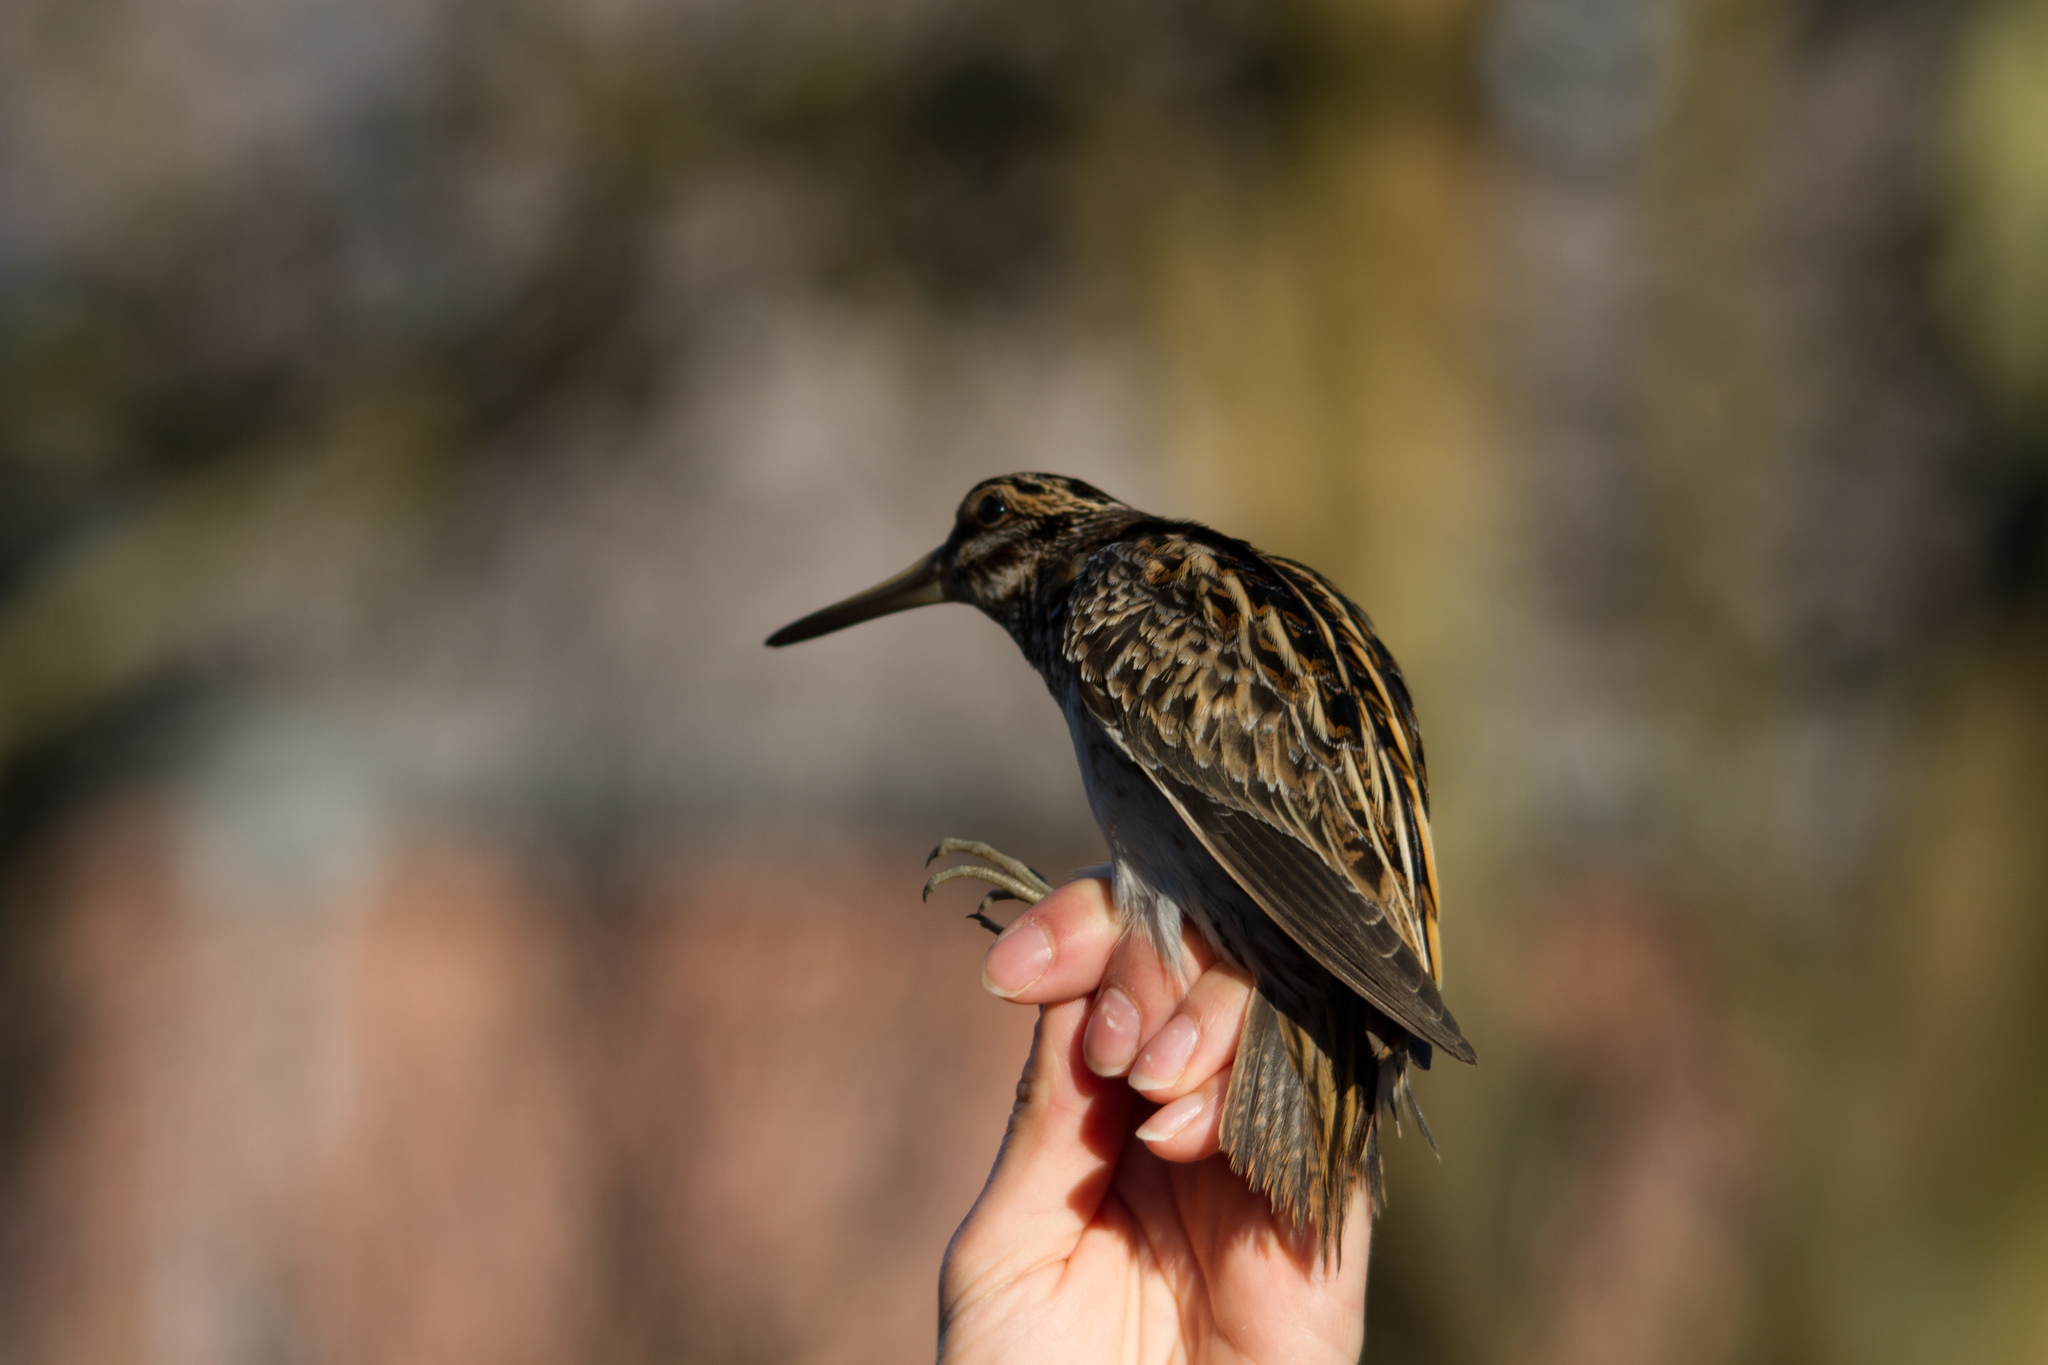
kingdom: Animalia
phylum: Chordata
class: Aves
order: Charadriiformes
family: Scolopacidae
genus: Lymnocryptes
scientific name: Lymnocryptes minimus
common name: Jack snipe
